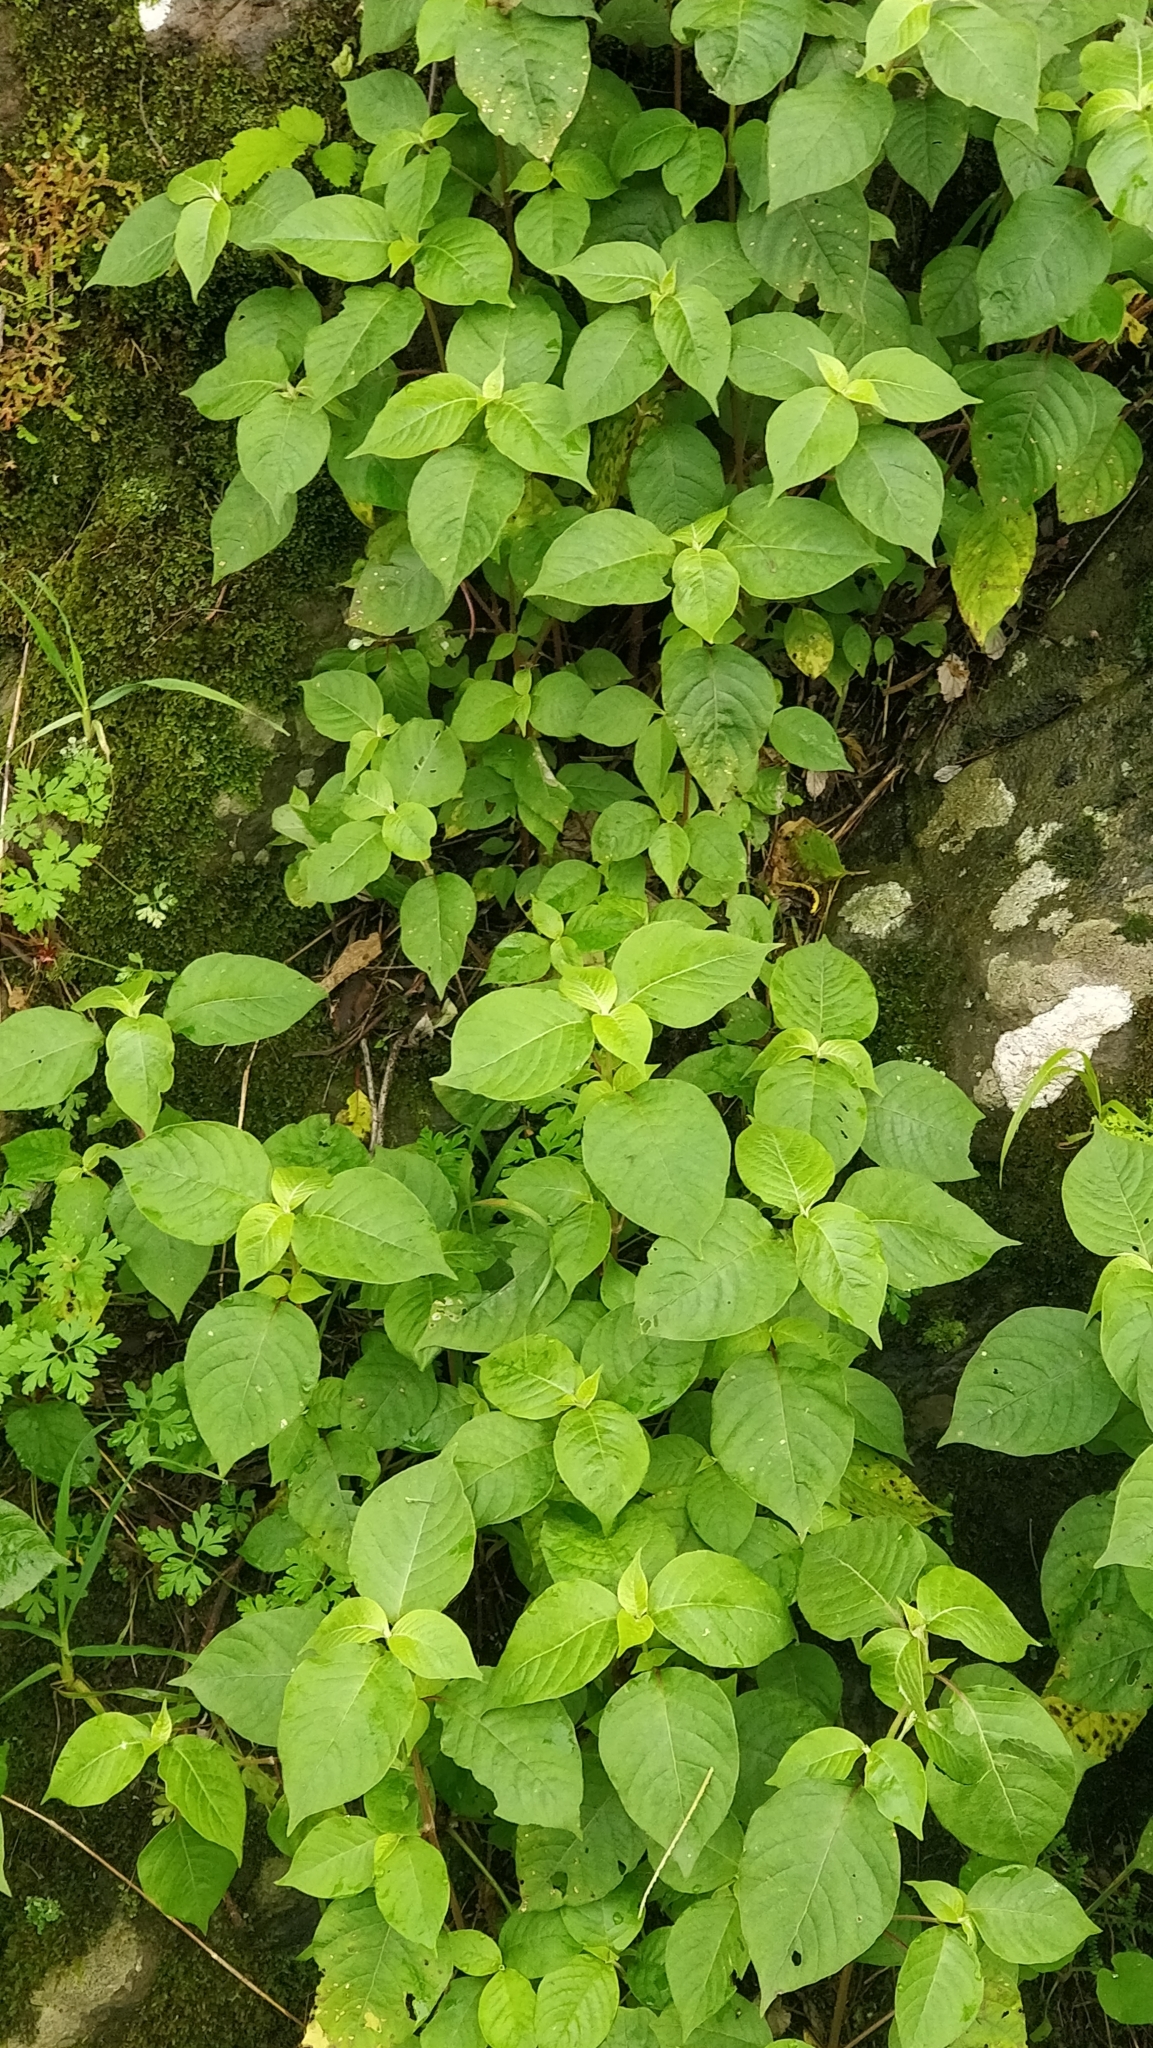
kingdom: Plantae
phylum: Tracheophyta
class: Magnoliopsida
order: Caryophyllales
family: Amaranthaceae
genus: Achyranthes
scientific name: Achyranthes aspera
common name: Devil's horsewhip
